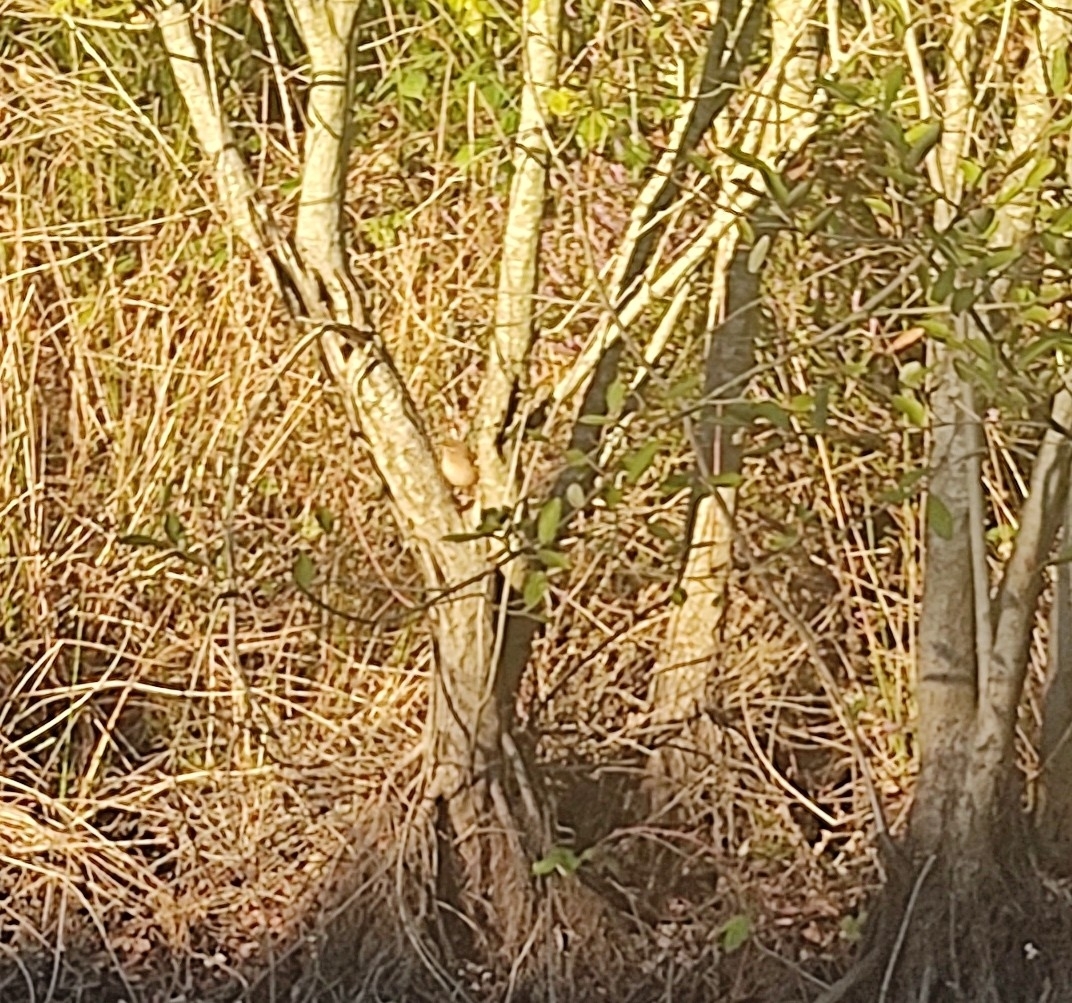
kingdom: Animalia
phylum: Chordata
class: Aves
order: Passeriformes
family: Troglodytidae
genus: Troglodytes
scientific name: Troglodytes troglodytes
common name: Eurasian wren
